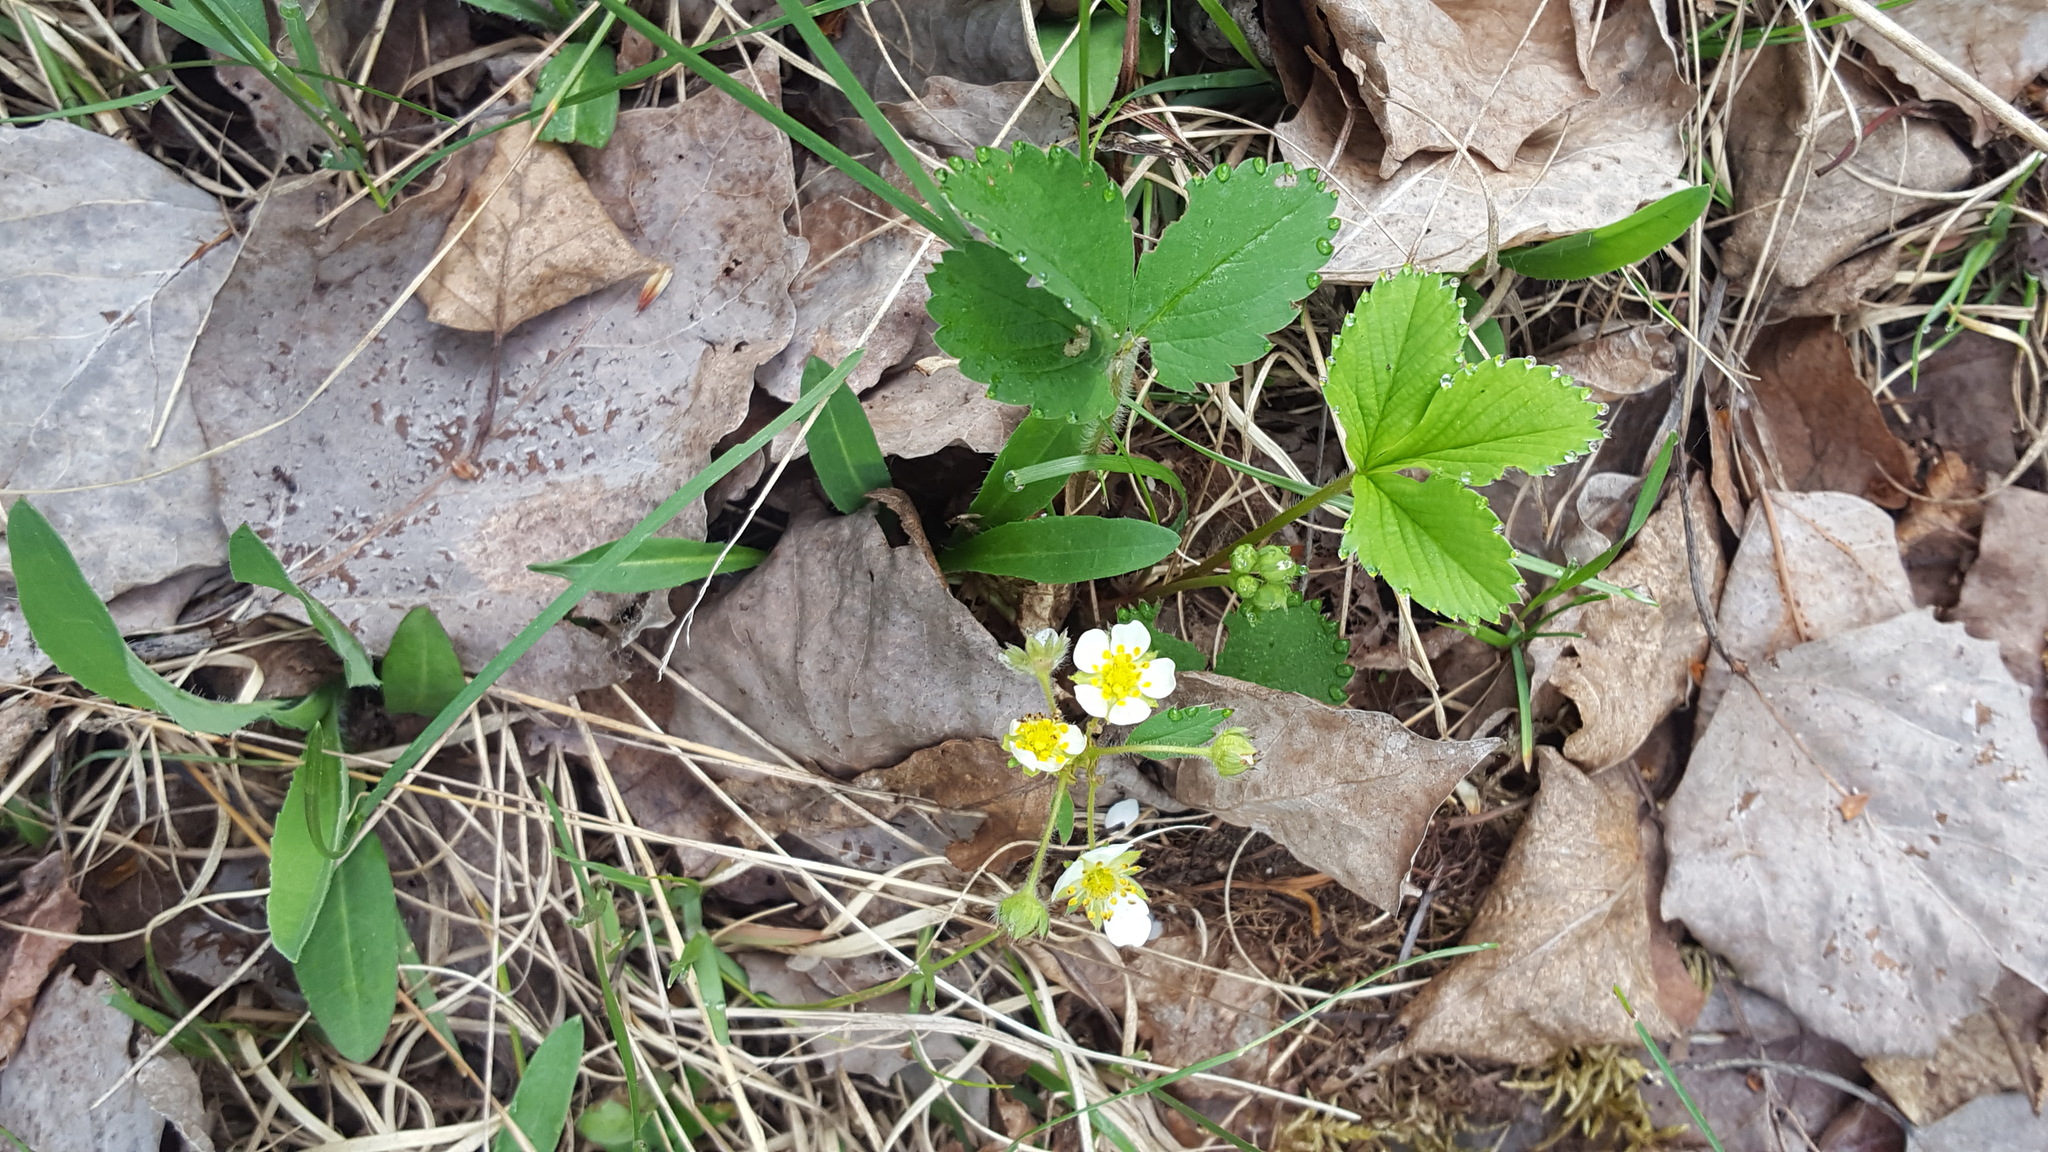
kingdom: Plantae
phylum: Tracheophyta
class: Magnoliopsida
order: Rosales
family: Rosaceae
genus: Fragaria
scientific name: Fragaria virginiana
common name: Thickleaved wild strawberry
